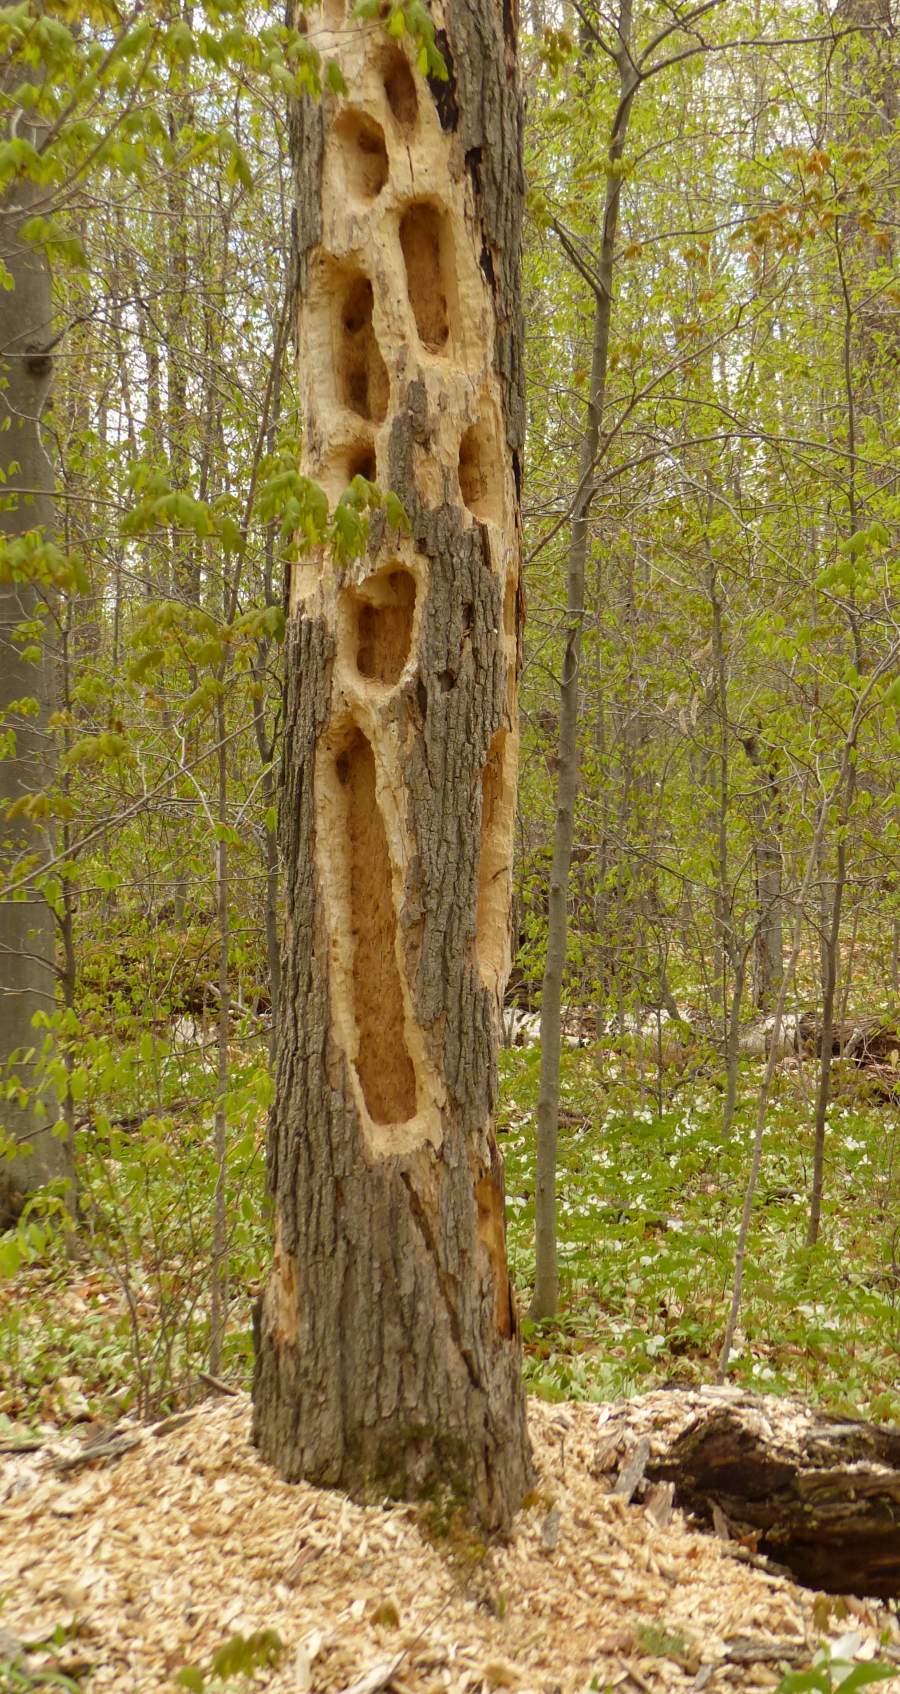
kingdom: Animalia
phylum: Chordata
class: Aves
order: Piciformes
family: Picidae
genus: Dryocopus
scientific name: Dryocopus pileatus
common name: Pileated woodpecker
